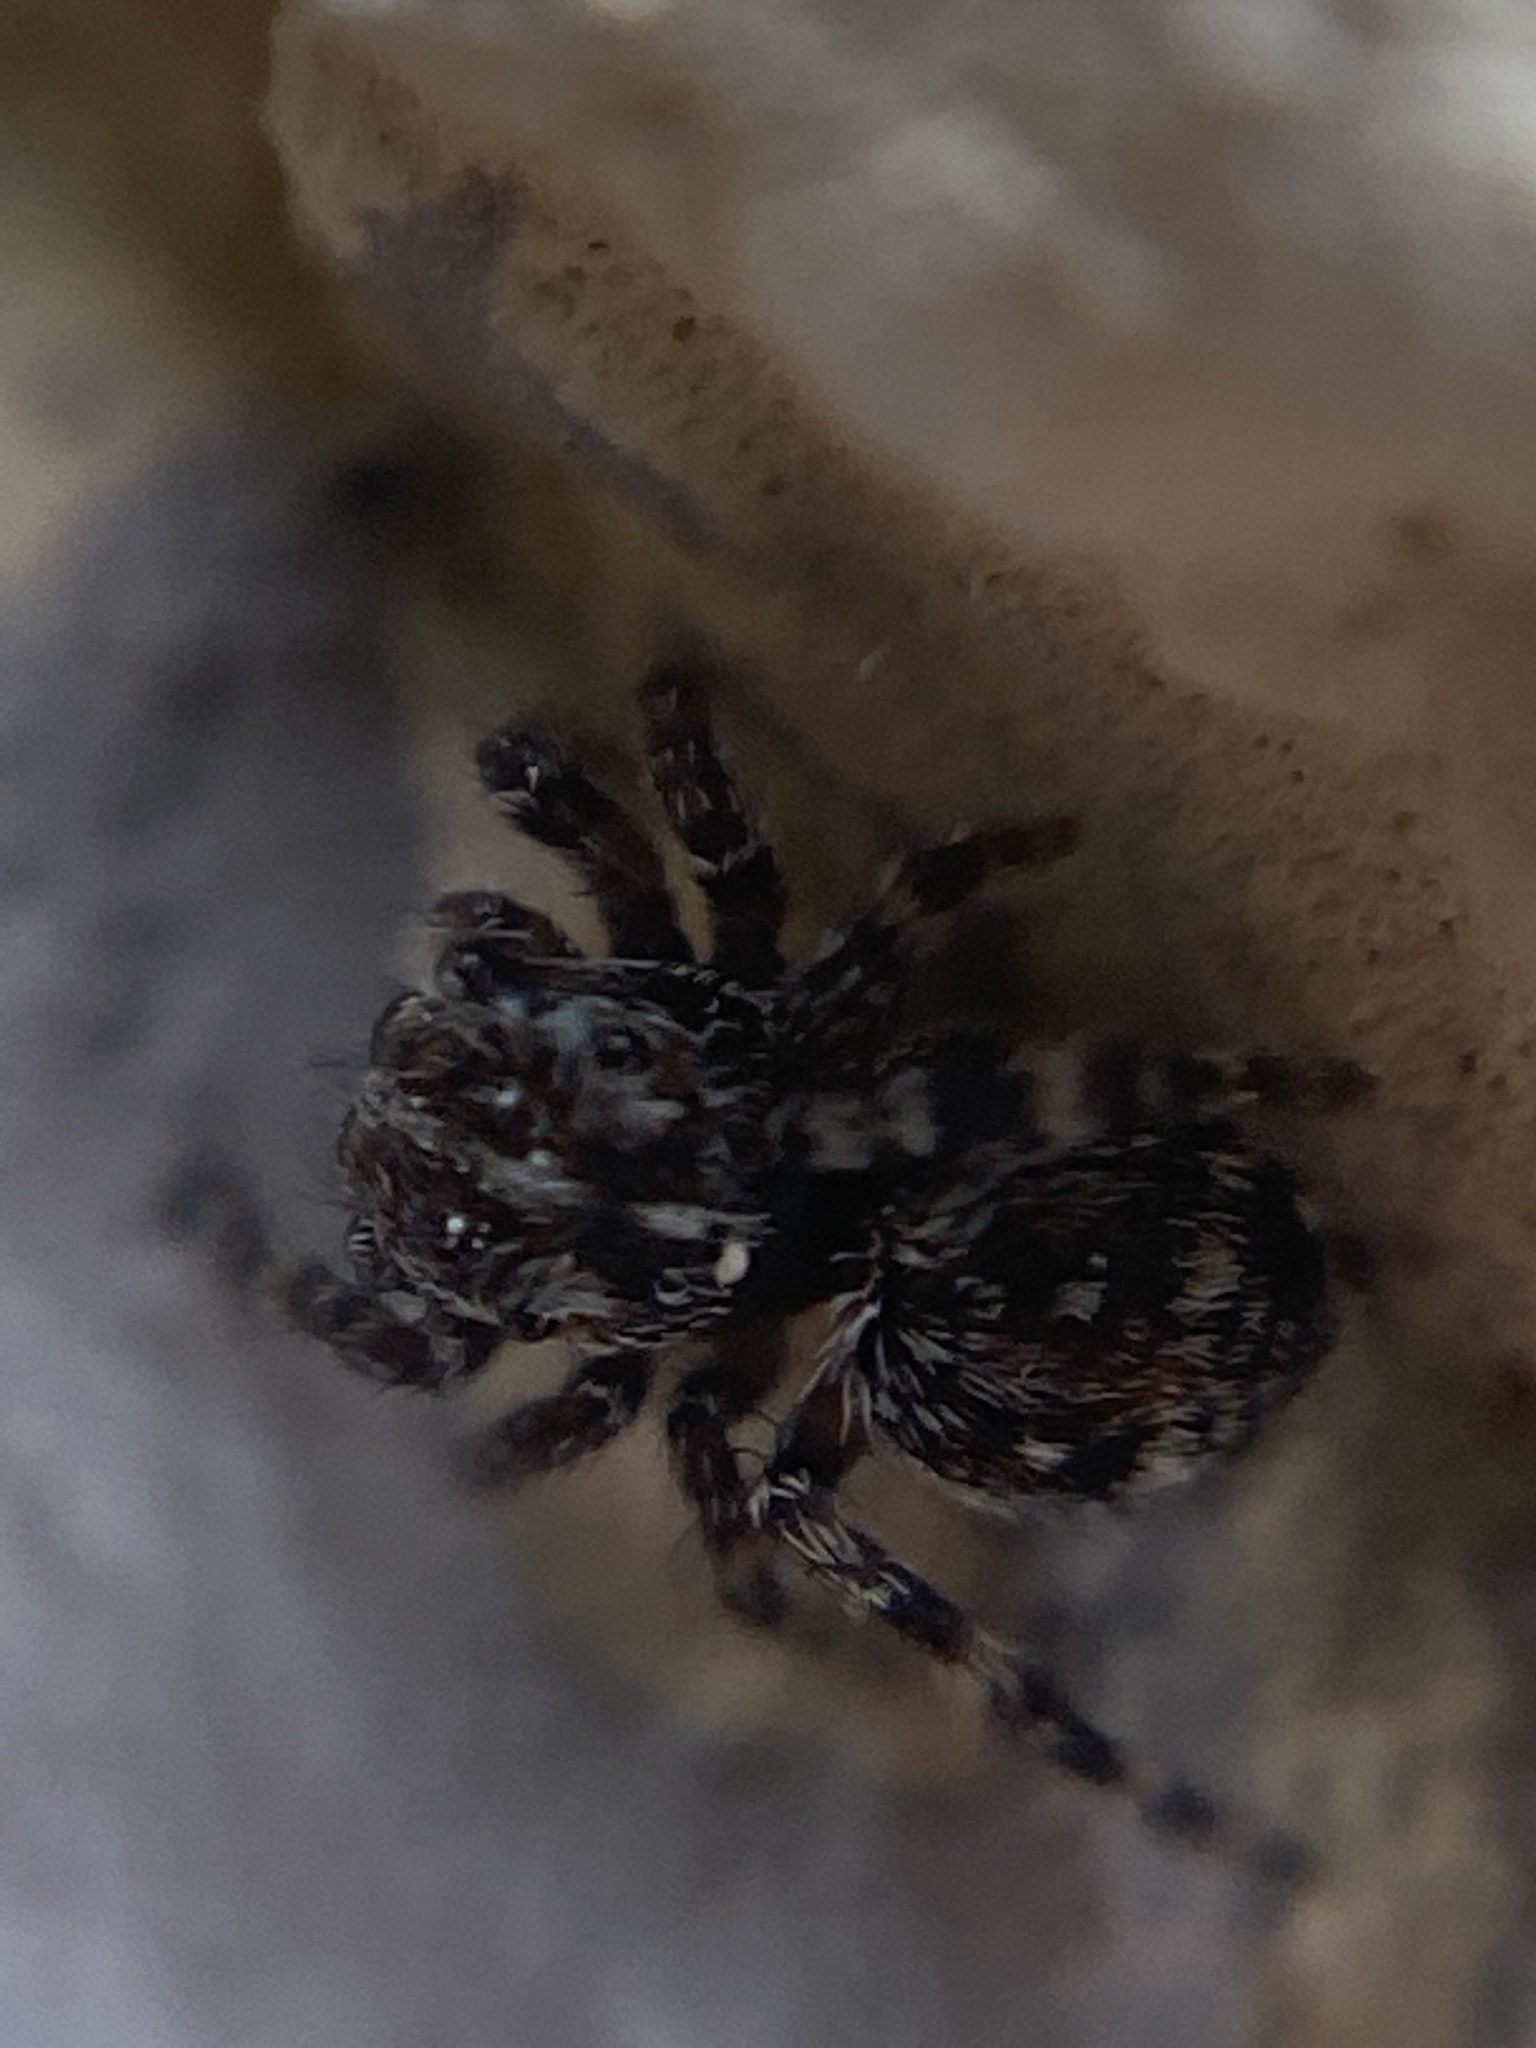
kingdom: Animalia
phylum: Arthropoda
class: Arachnida
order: Araneae
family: Salticidae
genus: Attulus
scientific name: Attulus pubescens
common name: Jumping spider
